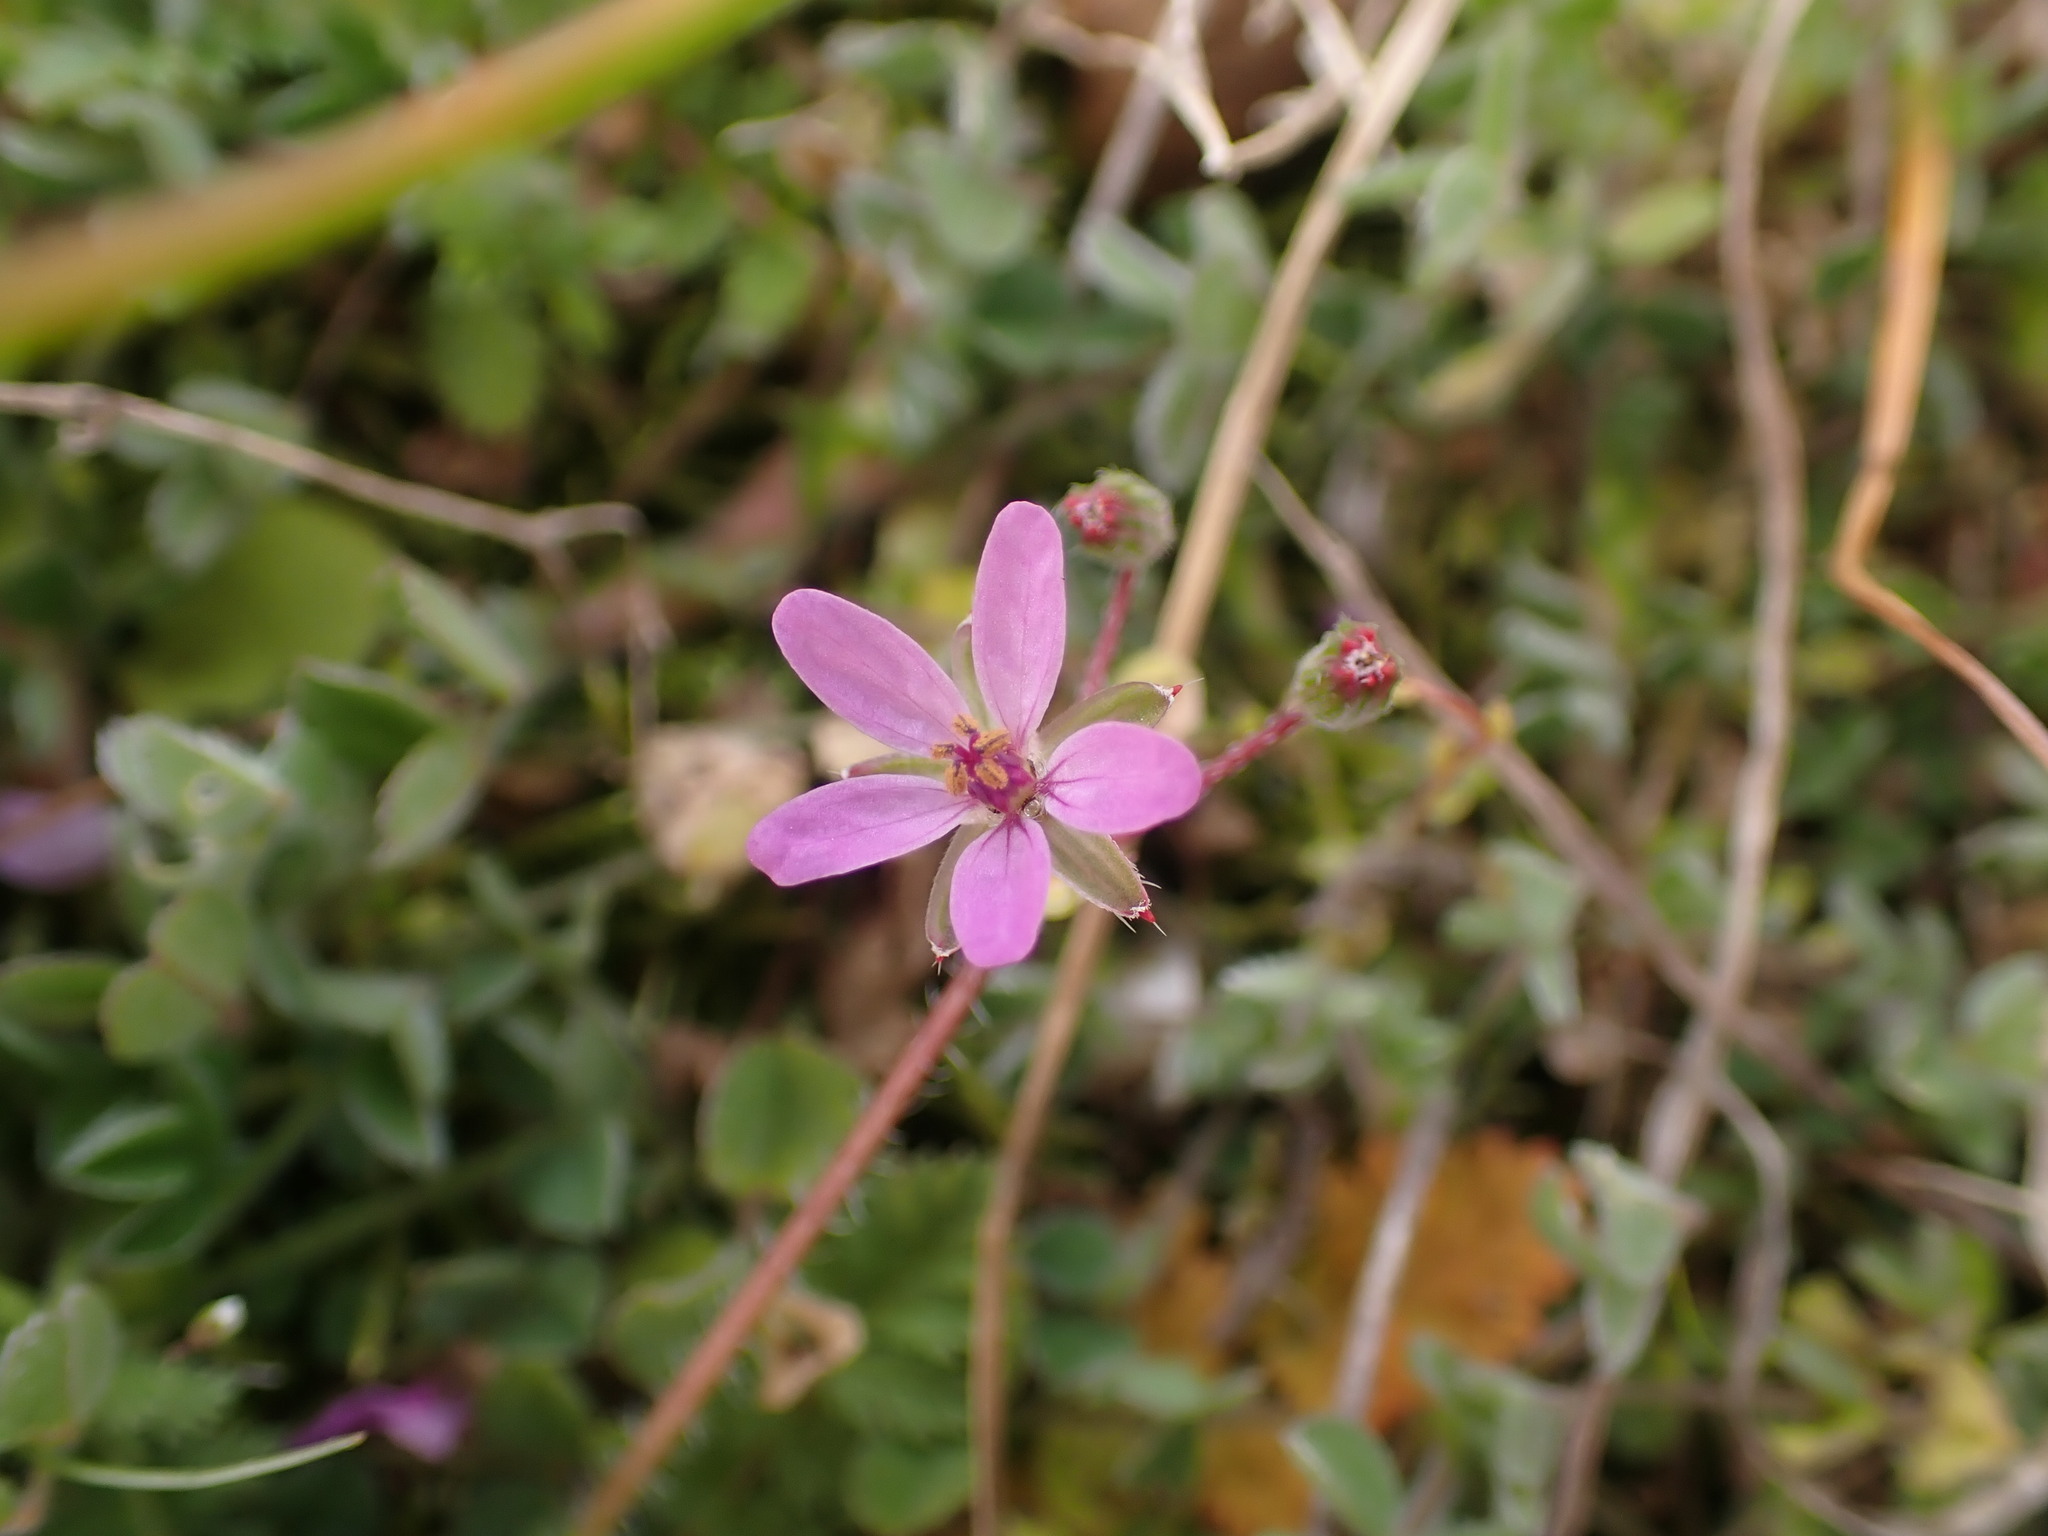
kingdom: Plantae
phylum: Tracheophyta
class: Magnoliopsida
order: Geraniales
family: Geraniaceae
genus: Erodium
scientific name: Erodium cicutarium
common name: Common stork's-bill
